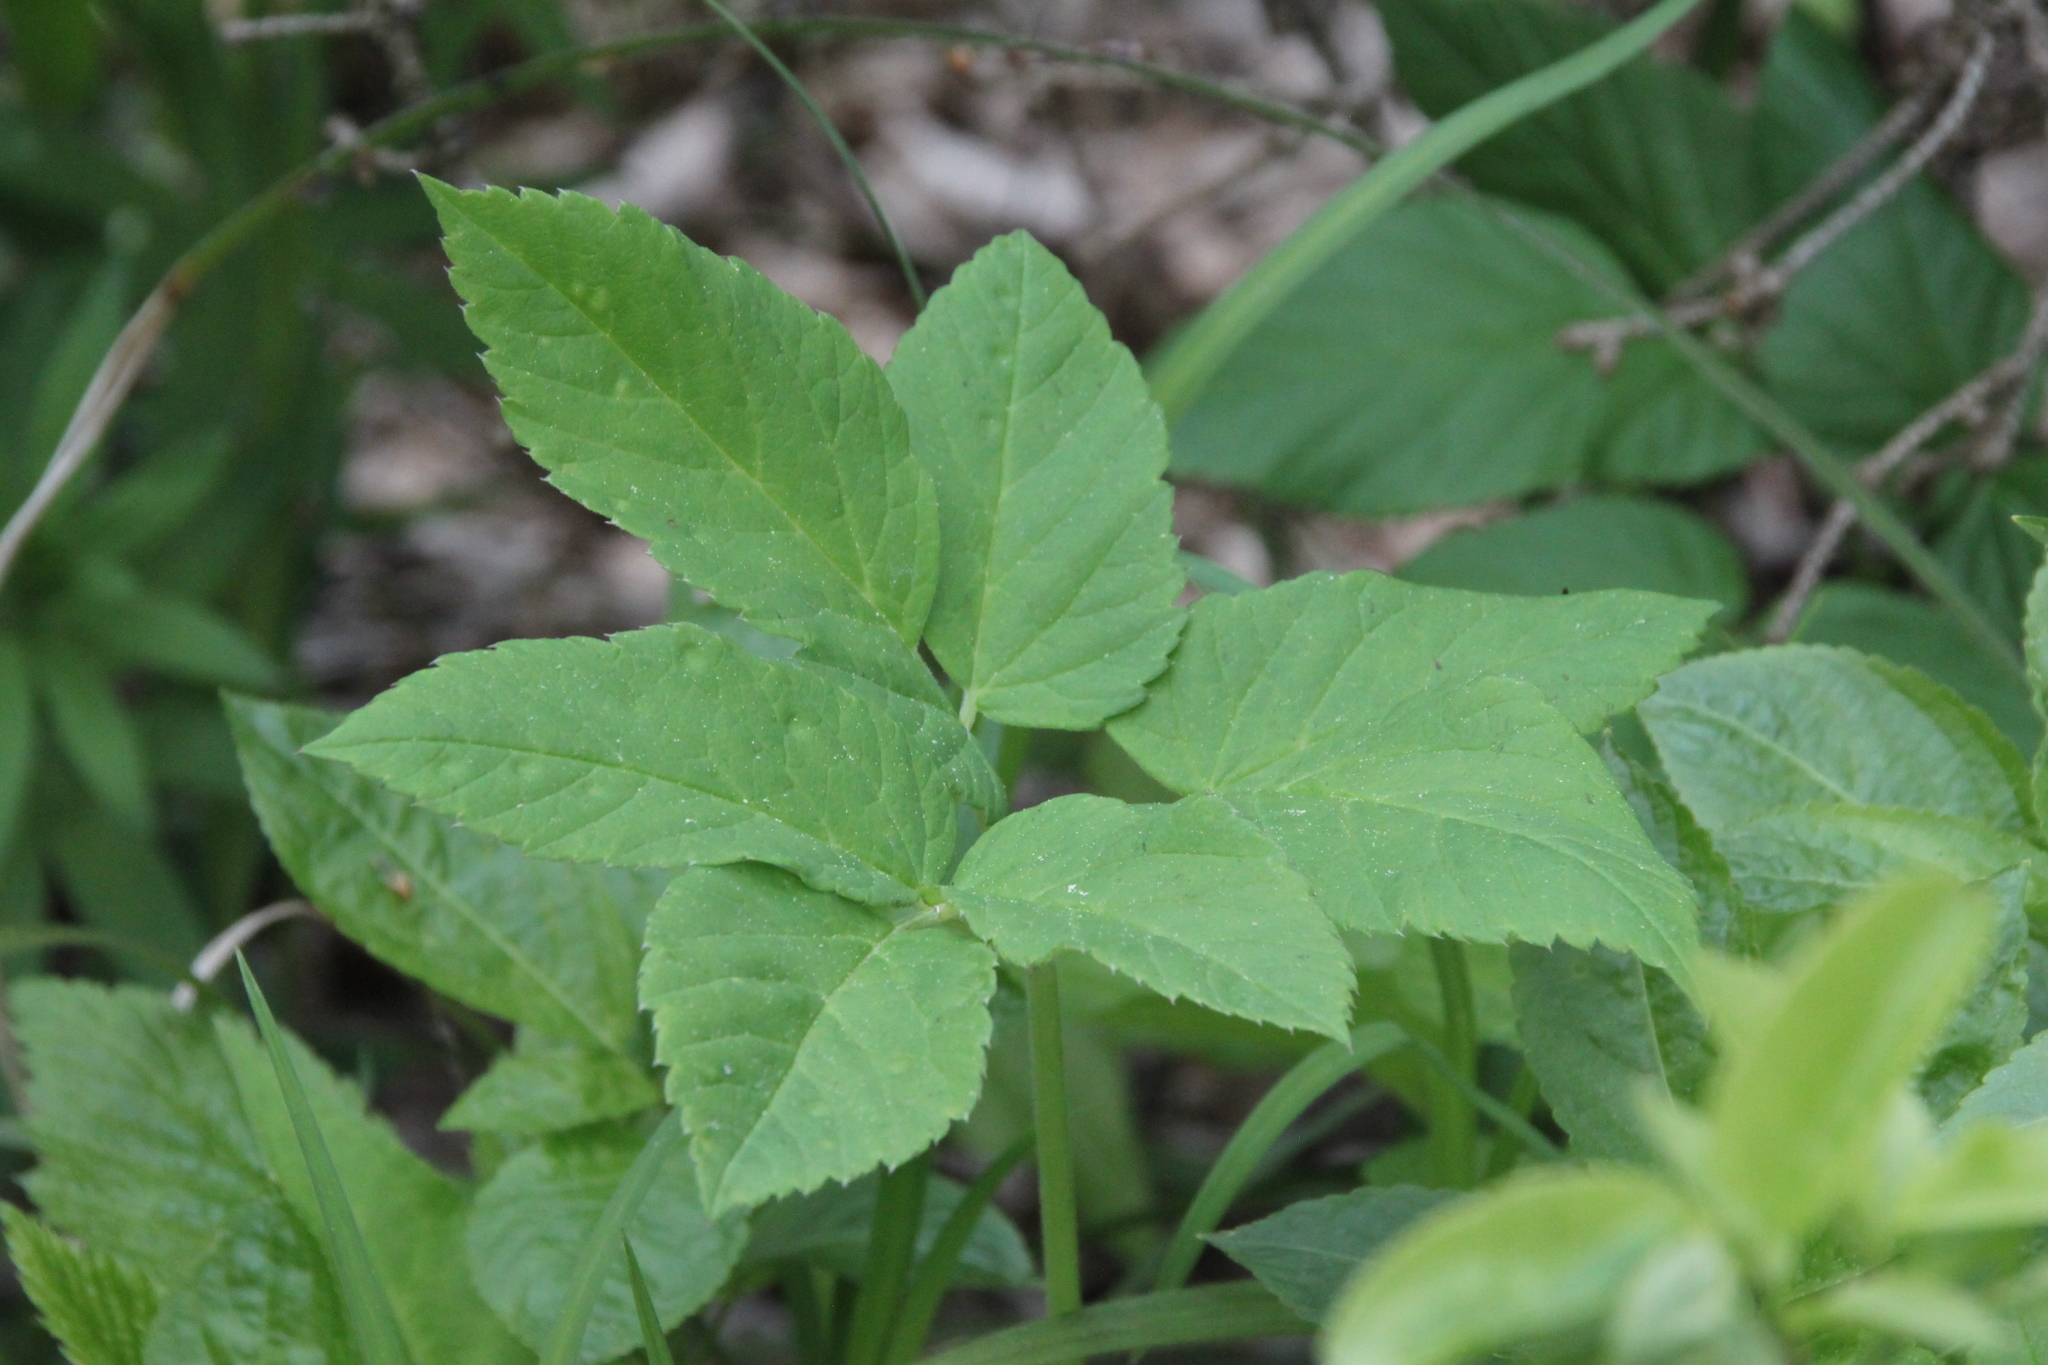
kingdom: Plantae
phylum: Tracheophyta
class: Magnoliopsida
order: Apiales
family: Apiaceae
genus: Aegopodium
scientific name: Aegopodium podagraria
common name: Ground-elder
